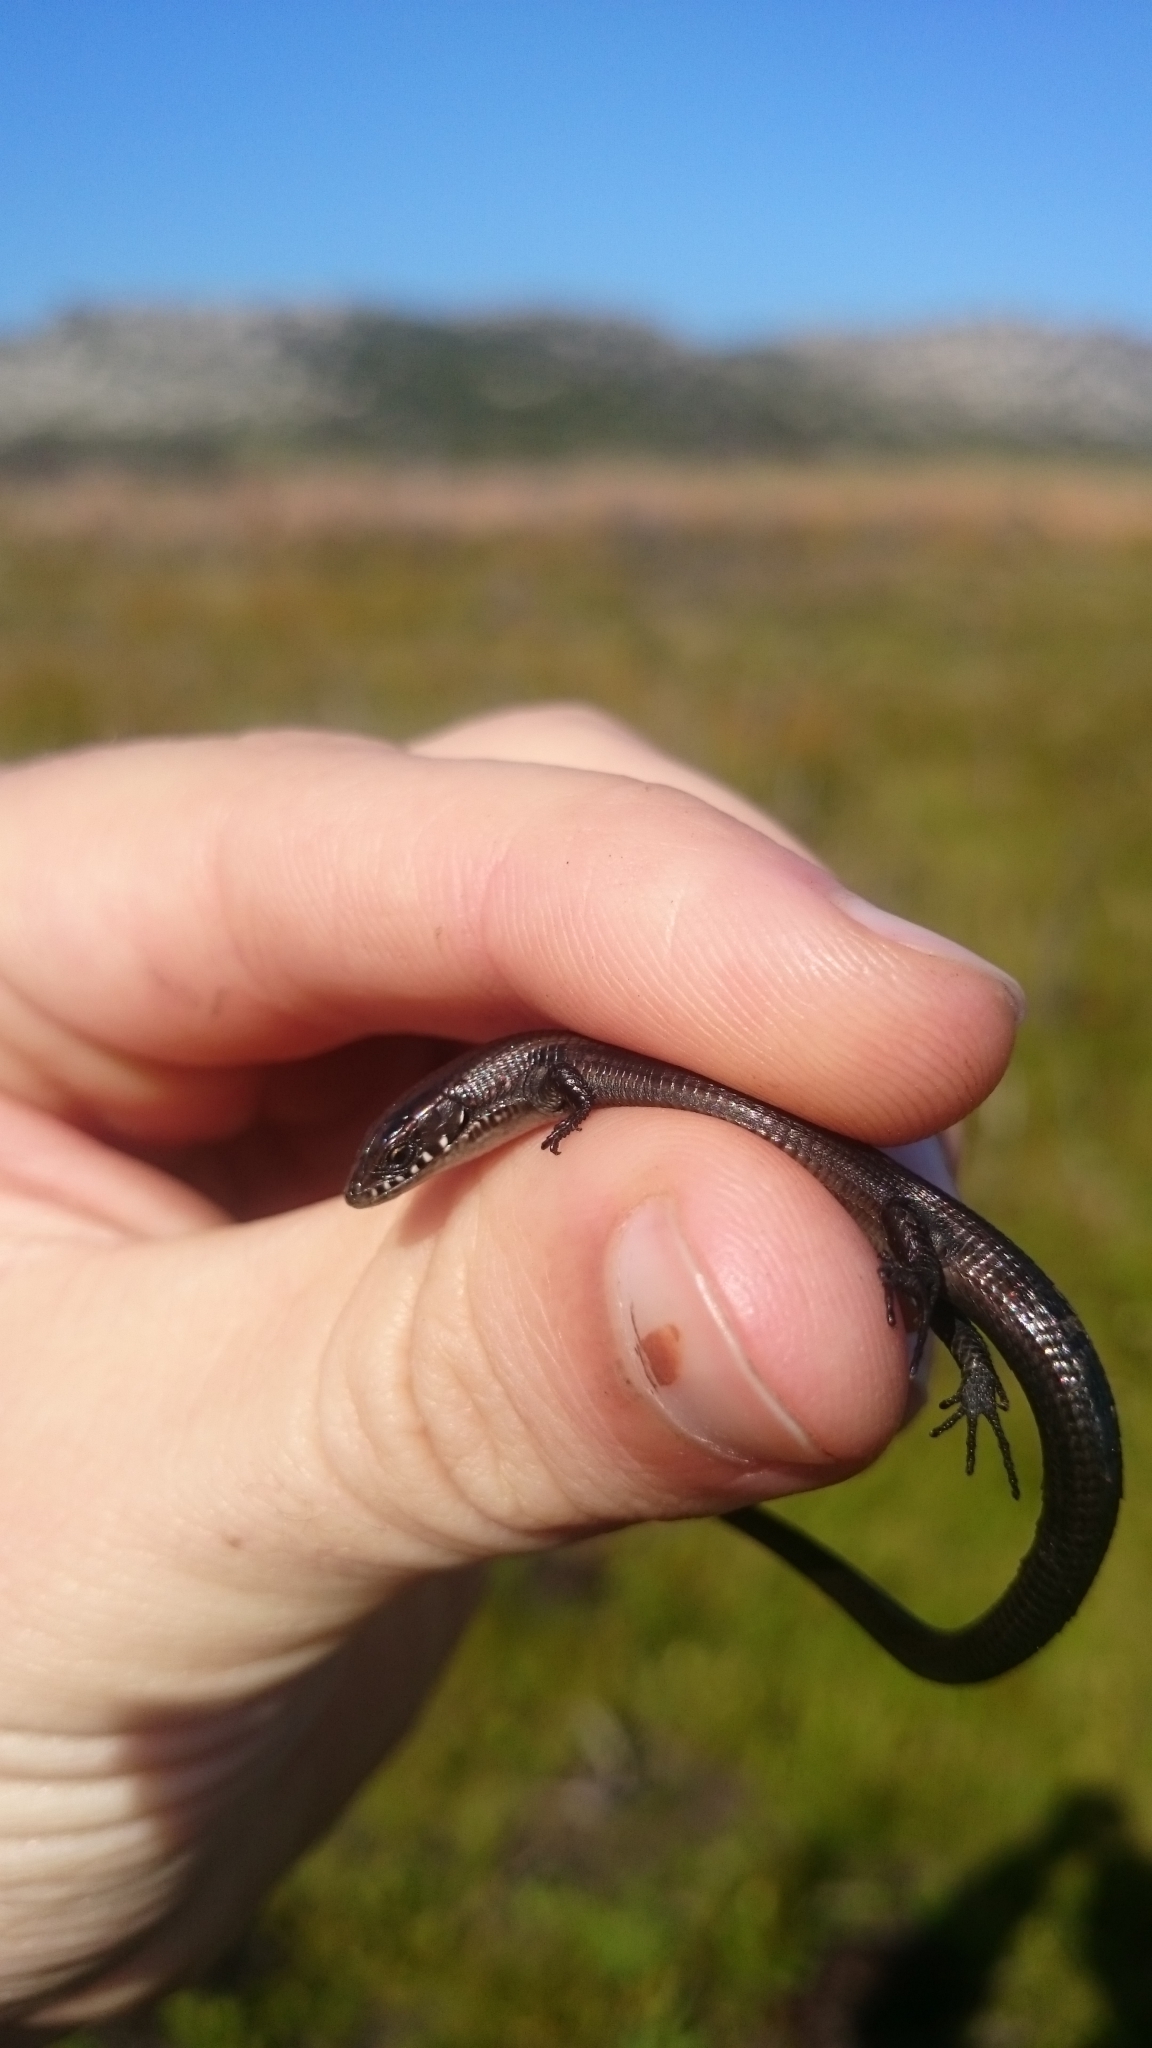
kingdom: Animalia
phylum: Chordata
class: Squamata
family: Gerrhosauridae
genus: Tetradactylus
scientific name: Tetradactylus seps
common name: Five-toed whip lizard
